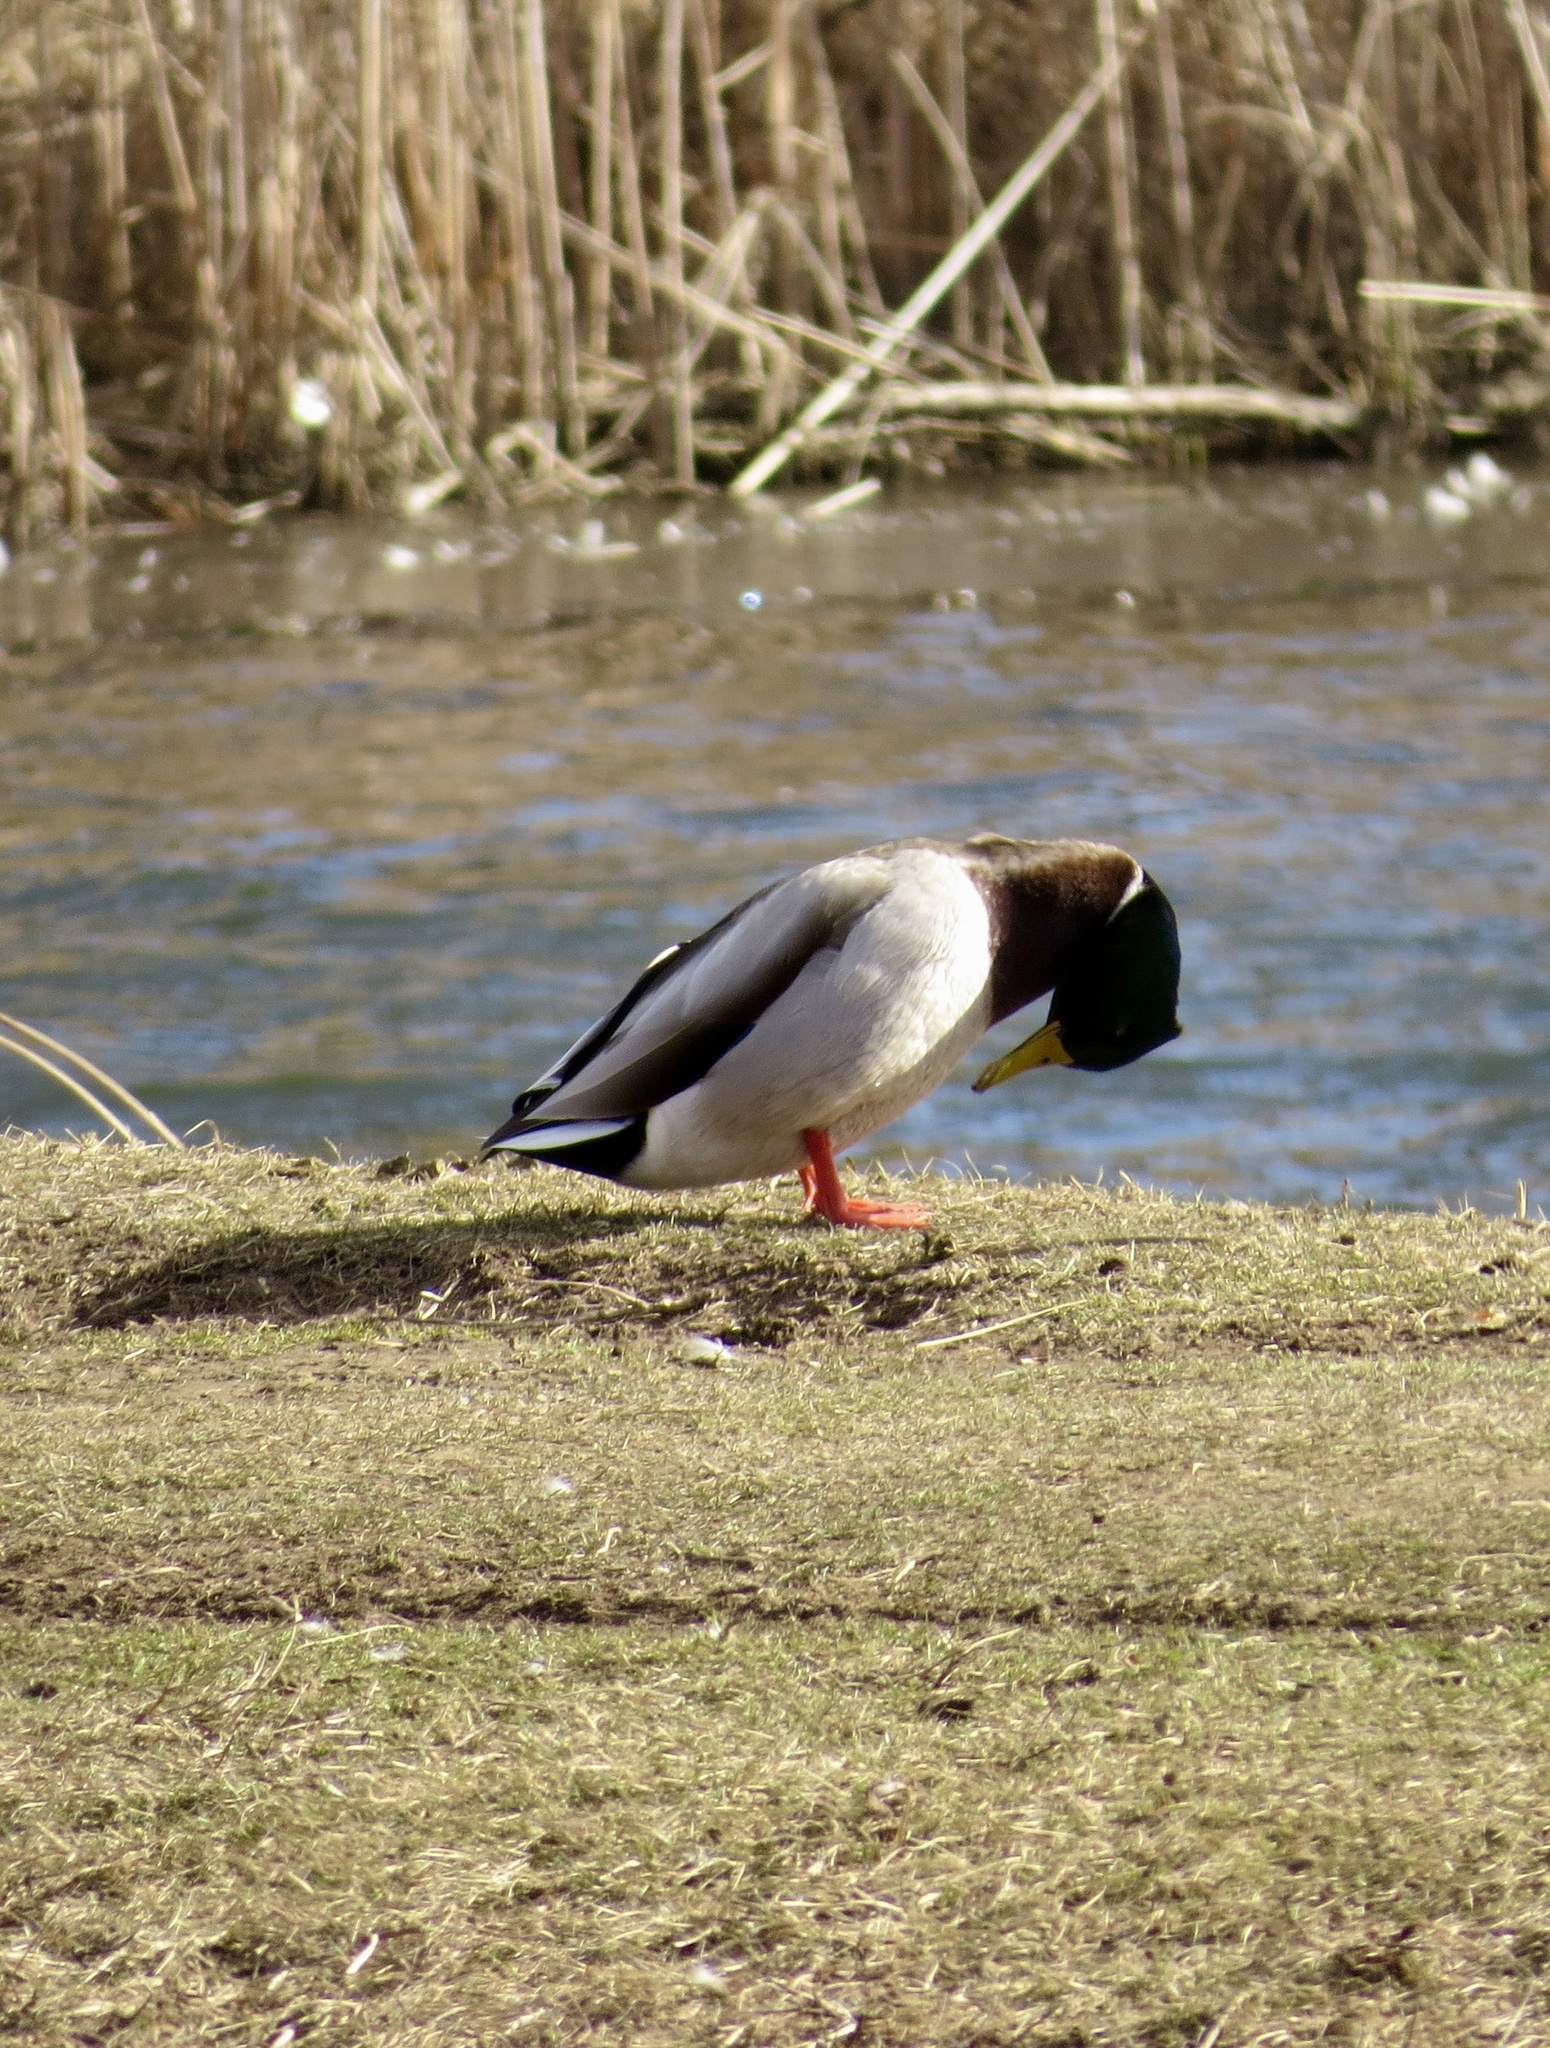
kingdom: Animalia
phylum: Chordata
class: Aves
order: Anseriformes
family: Anatidae
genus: Anas
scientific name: Anas platyrhynchos
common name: Mallard
